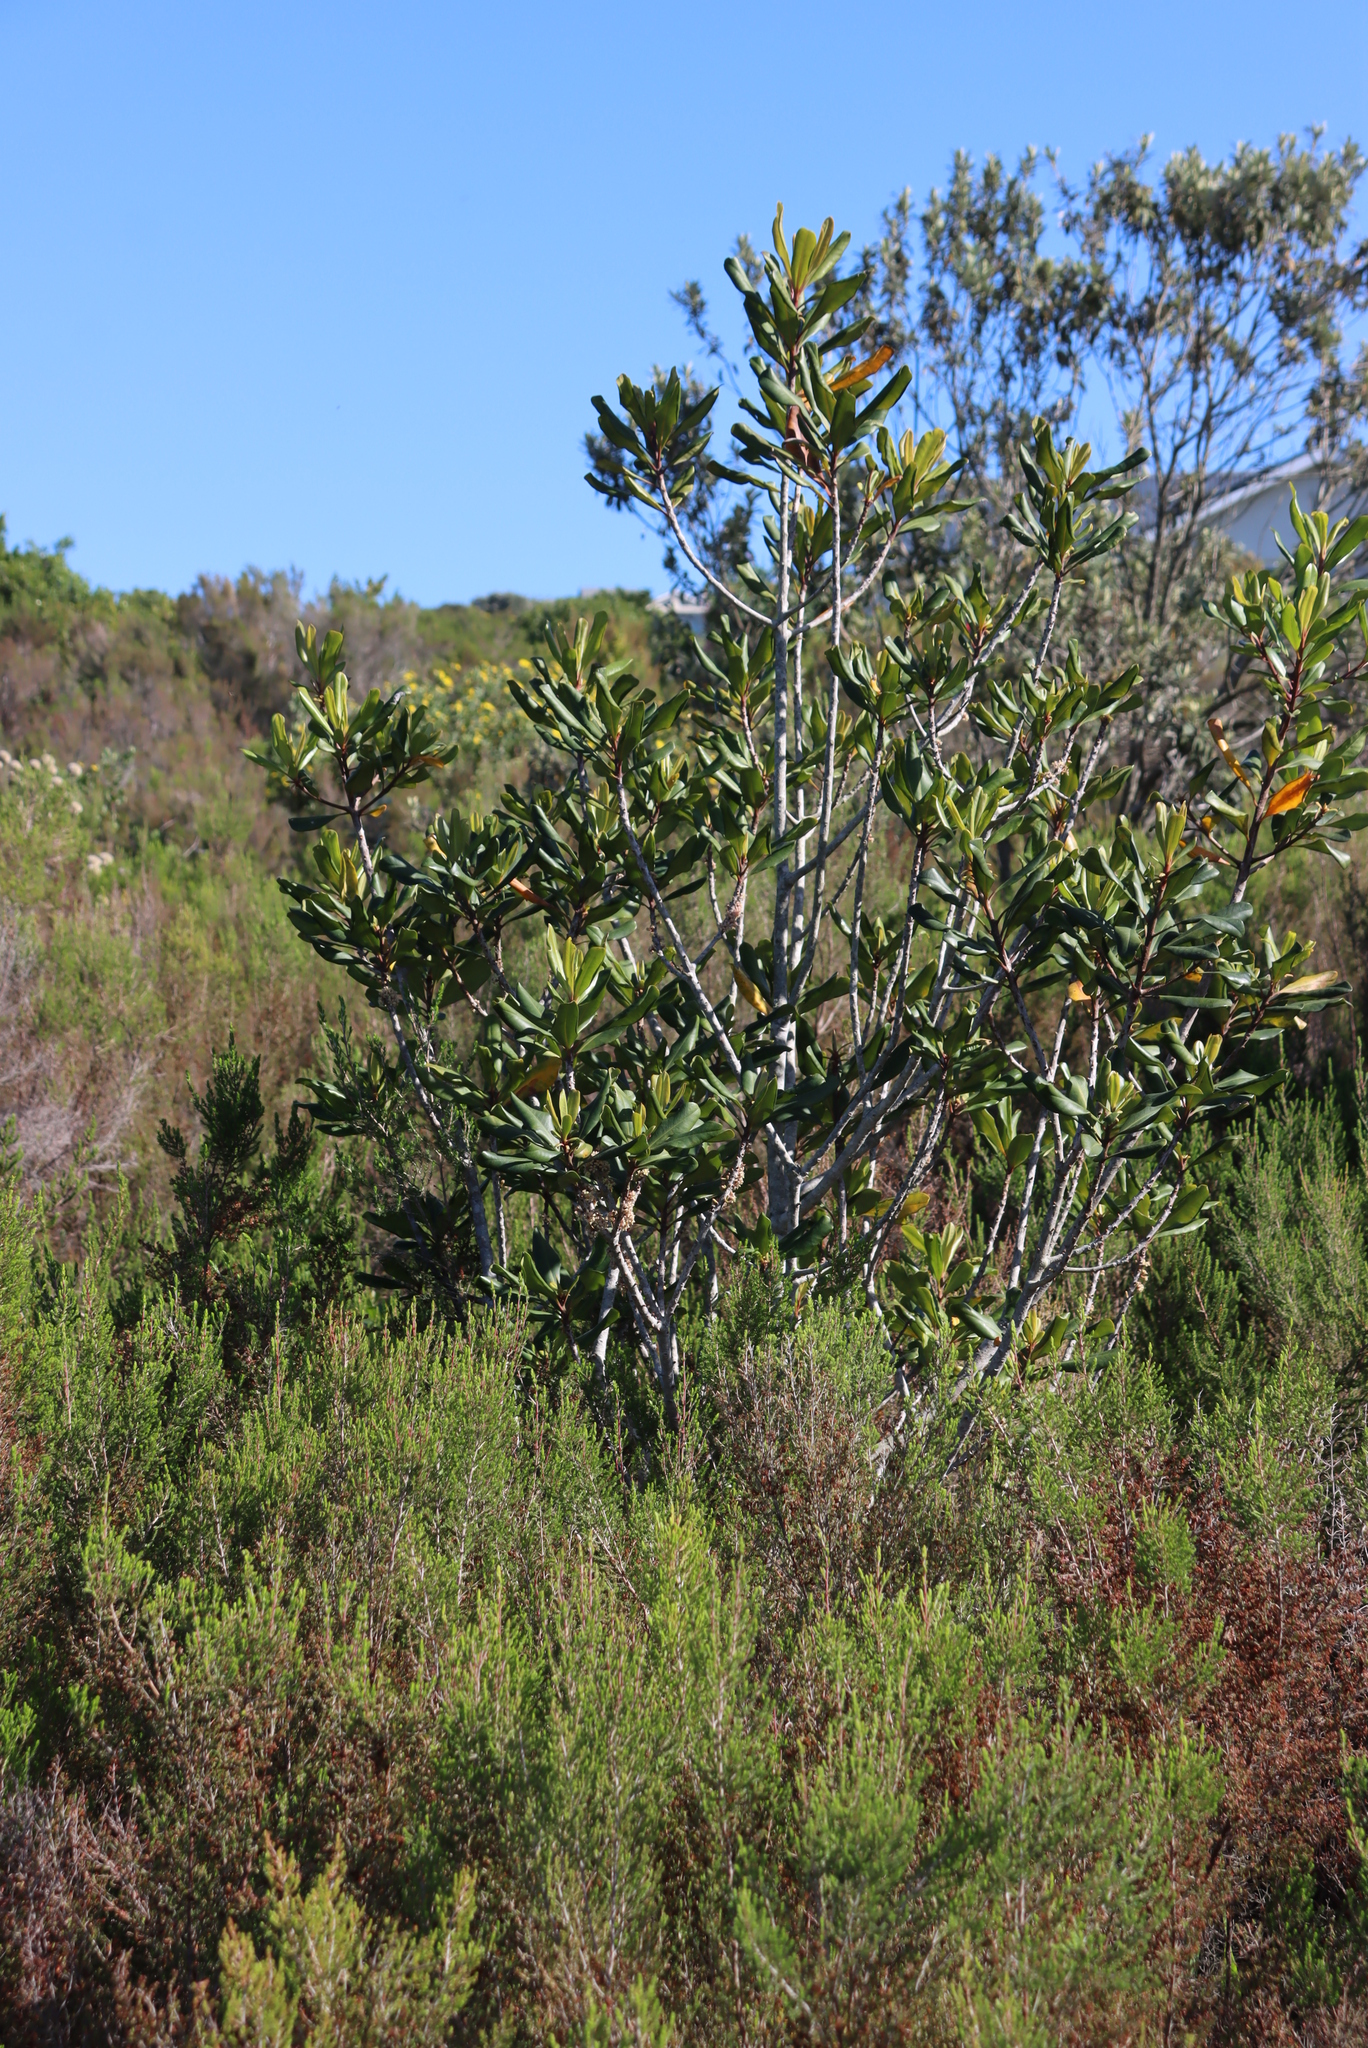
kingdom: Plantae
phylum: Tracheophyta
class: Magnoliopsida
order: Ericales
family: Primulaceae
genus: Myrsine
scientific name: Myrsine melanophloeos
